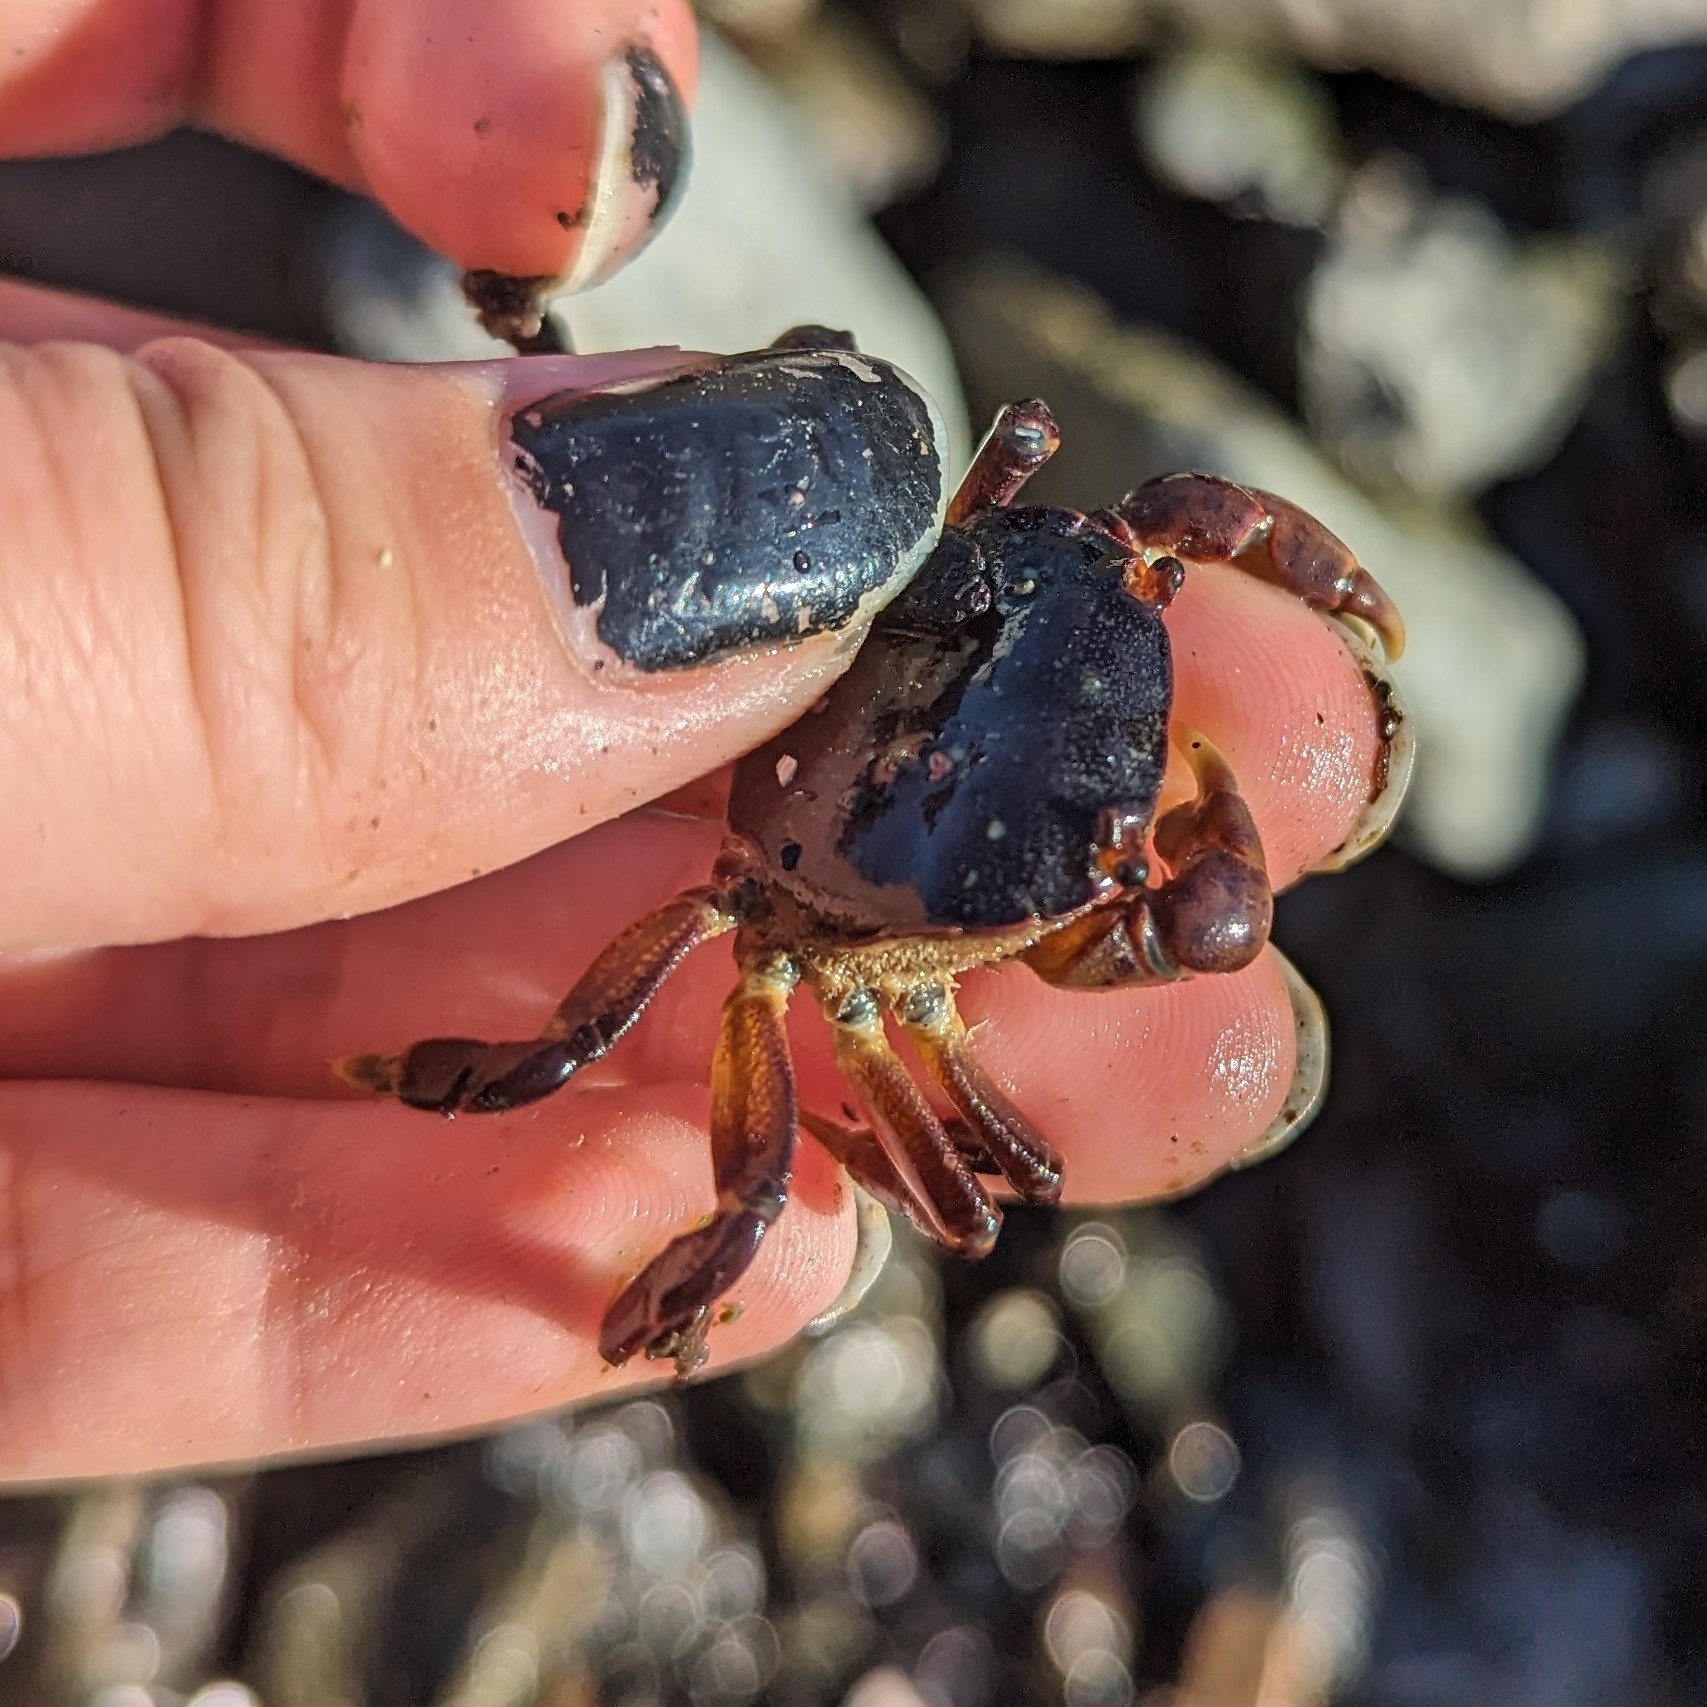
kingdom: Animalia
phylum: Arthropoda
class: Malacostraca
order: Decapoda
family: Varunidae
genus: Hemigrapsus
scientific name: Hemigrapsus nudus
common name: Purple shore crab
